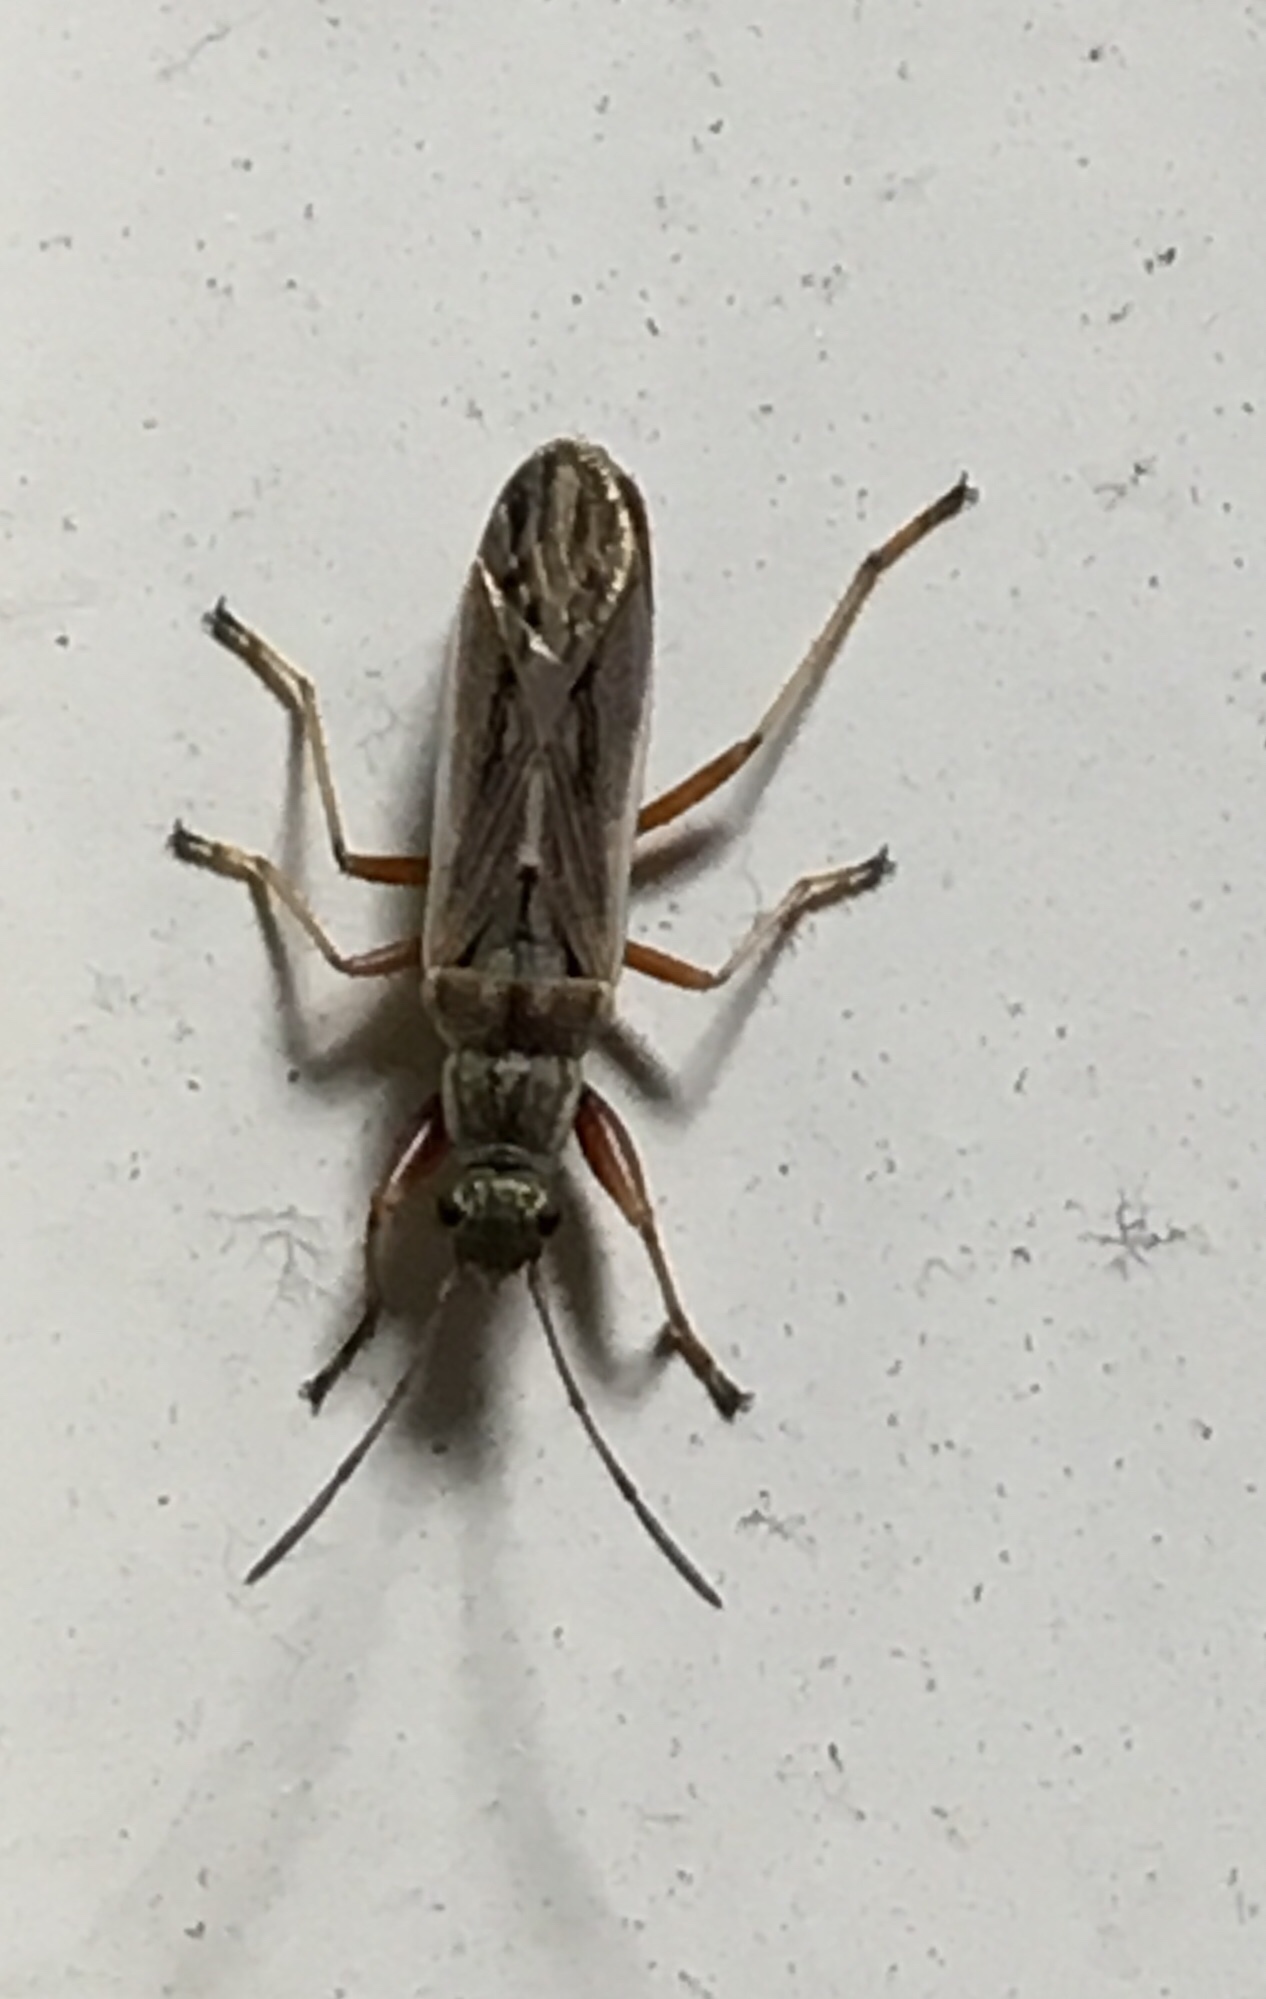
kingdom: Animalia
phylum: Arthropoda
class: Insecta
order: Hemiptera
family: Rhyparochromidae
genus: Paromius
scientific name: Paromius longulus
